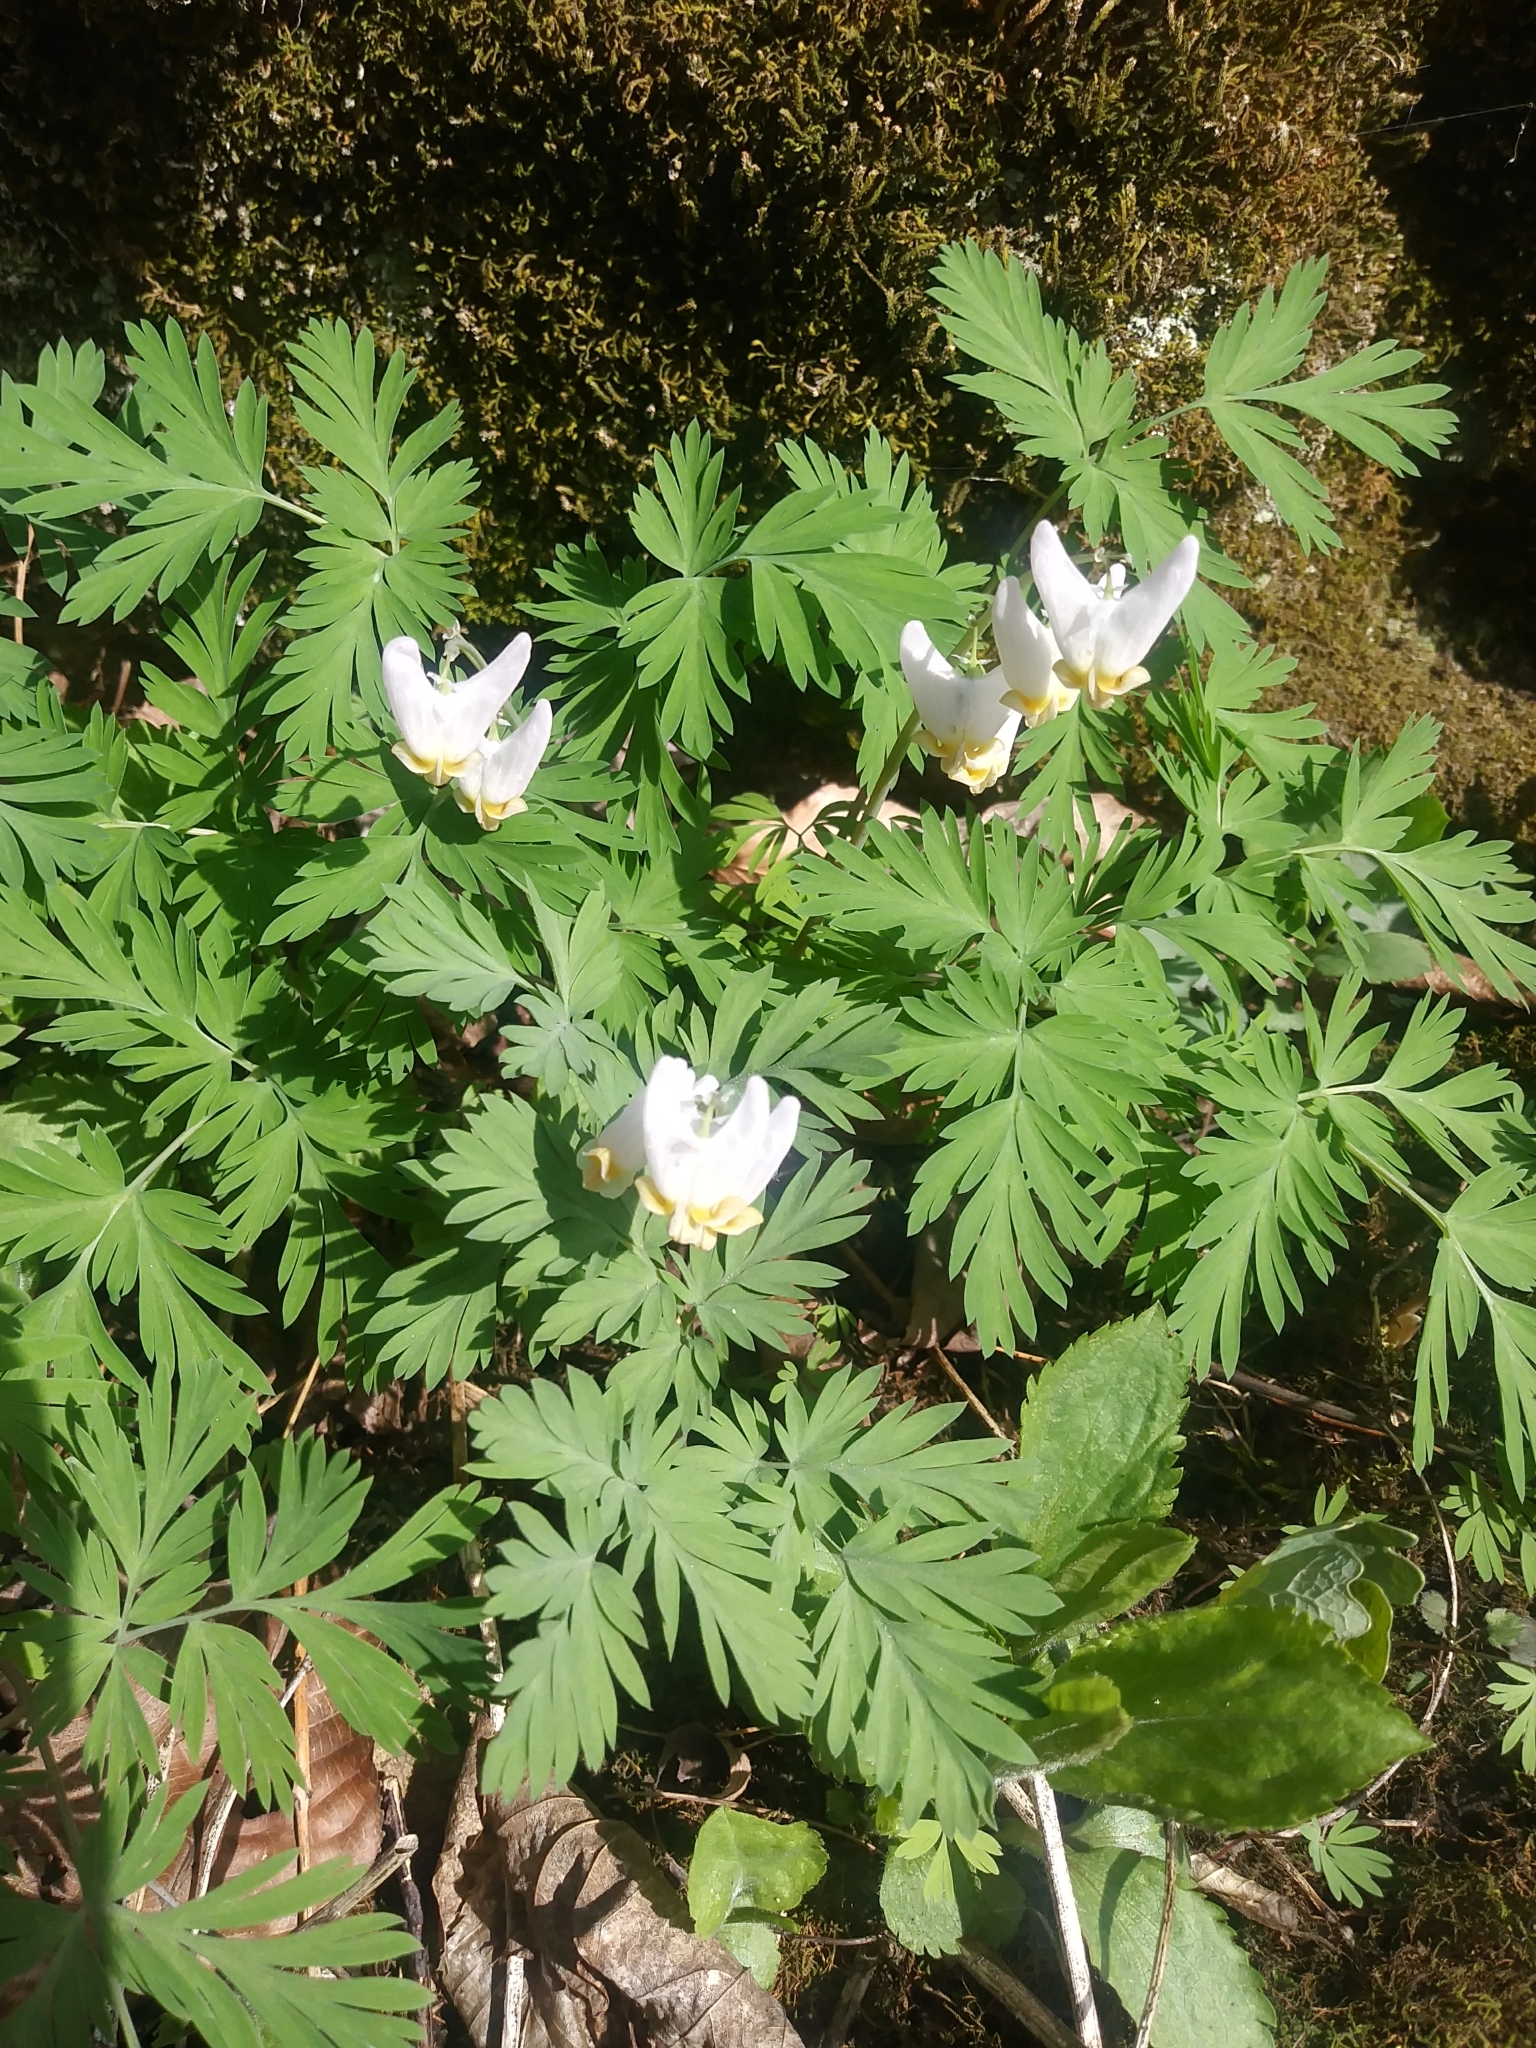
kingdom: Plantae
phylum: Tracheophyta
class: Magnoliopsida
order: Ranunculales
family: Papaveraceae
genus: Dicentra
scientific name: Dicentra cucullaria
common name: Dutchman's breeches
